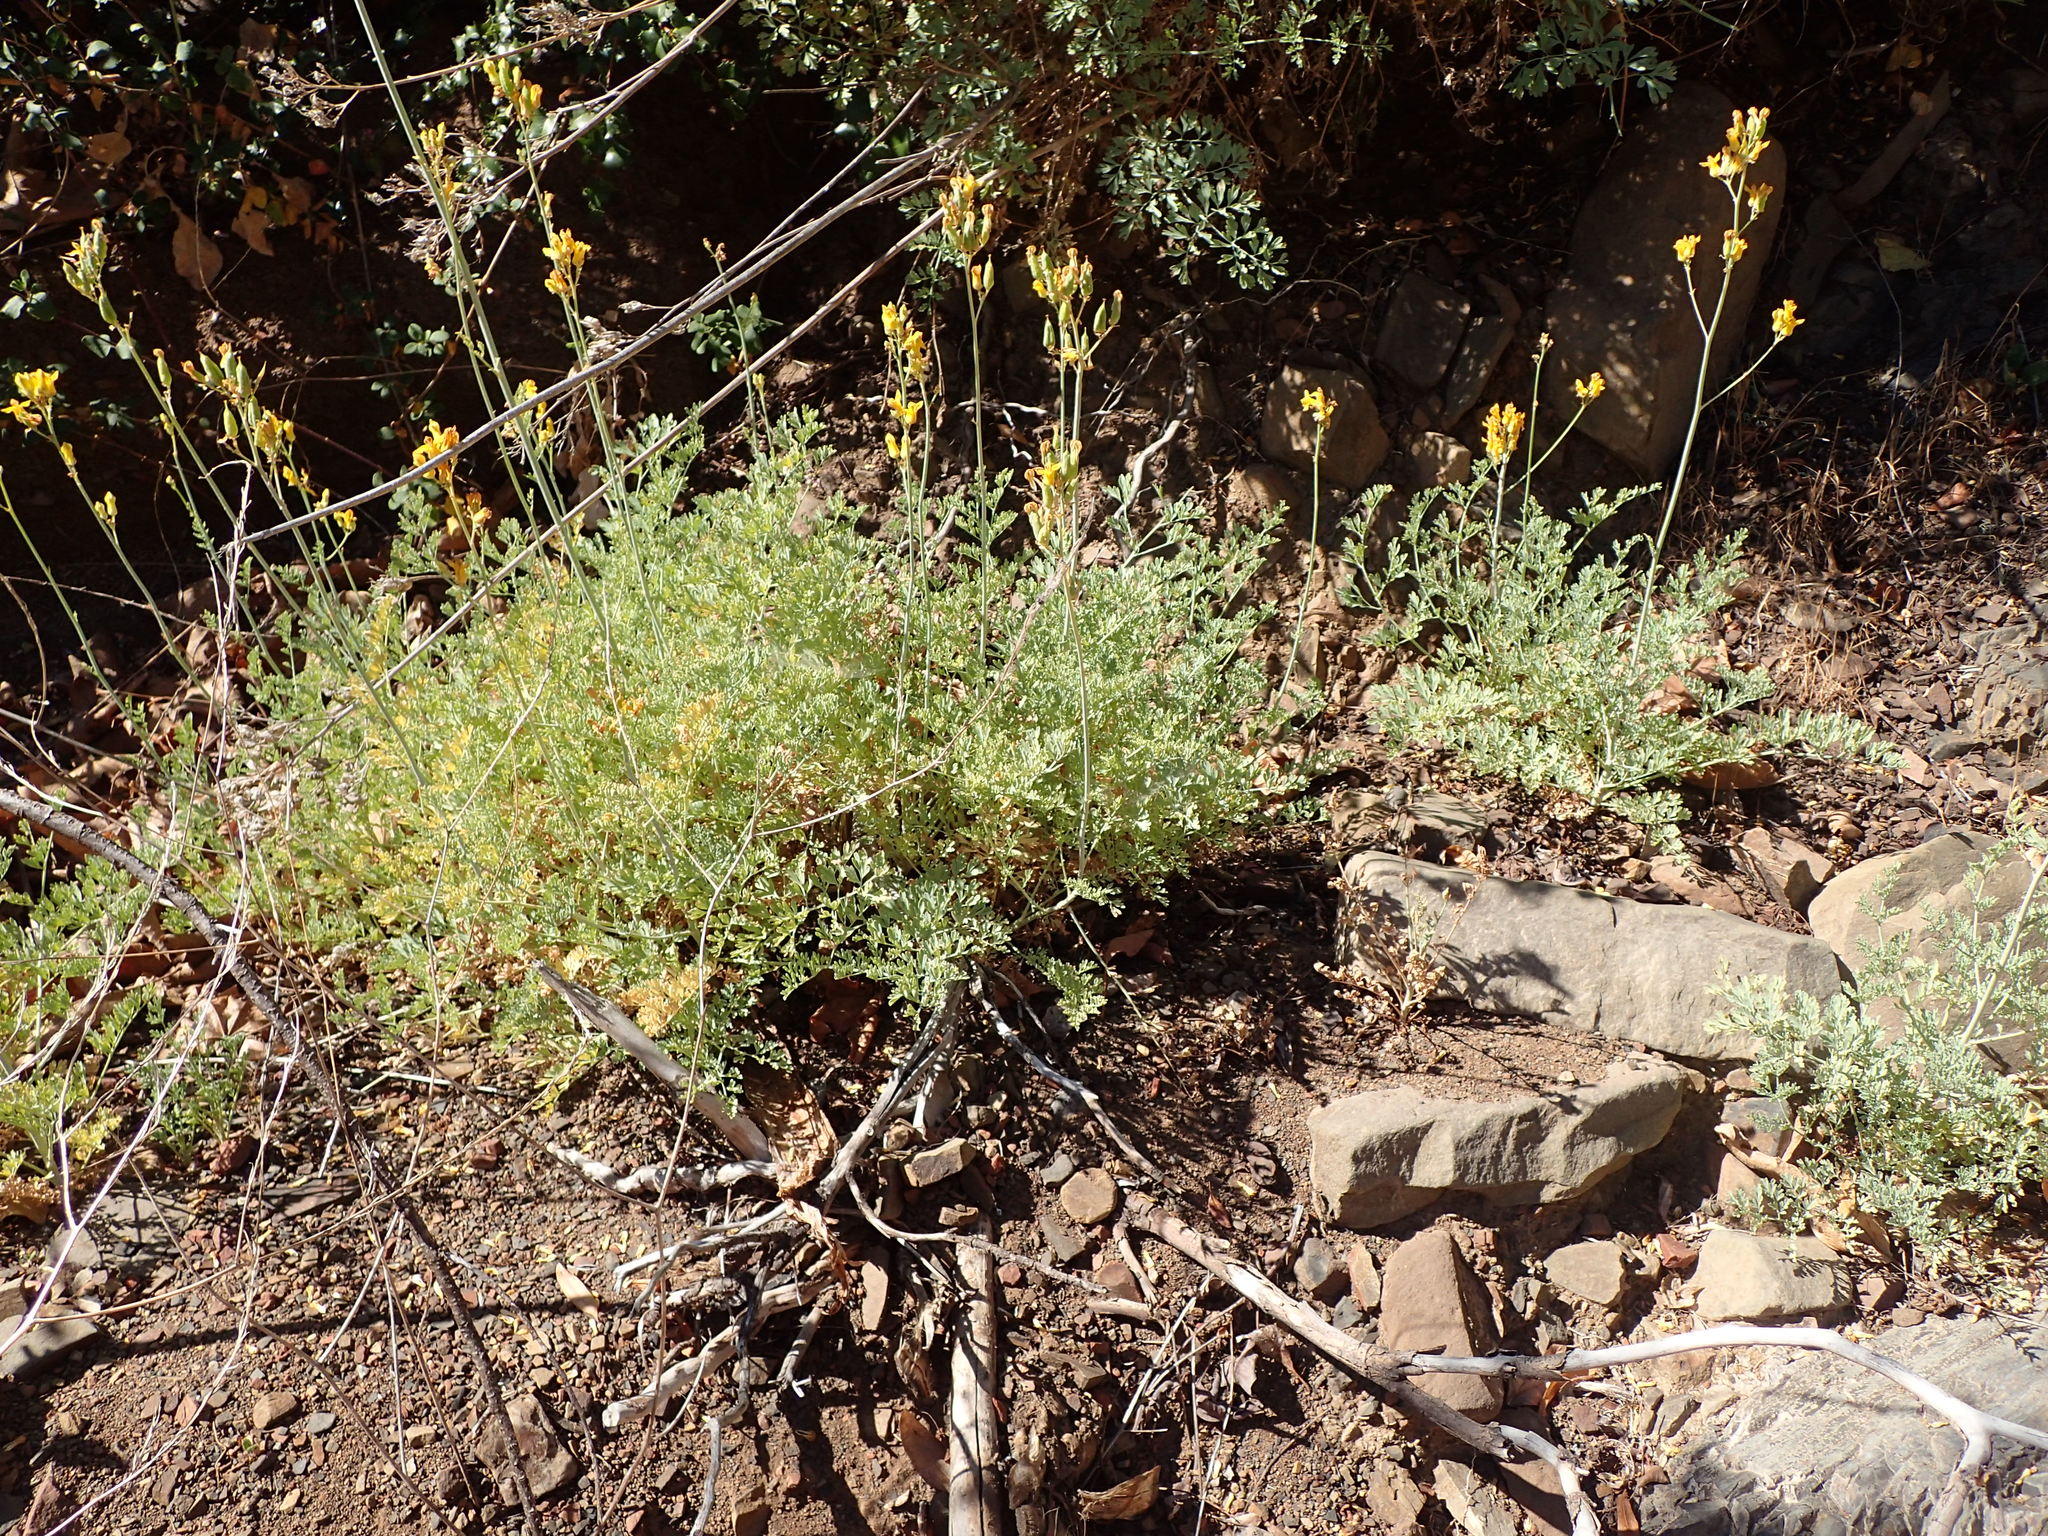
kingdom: Plantae
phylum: Tracheophyta
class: Magnoliopsida
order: Ranunculales
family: Papaveraceae
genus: Ehrendorferia
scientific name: Ehrendorferia chrysantha
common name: Golden eardrops
